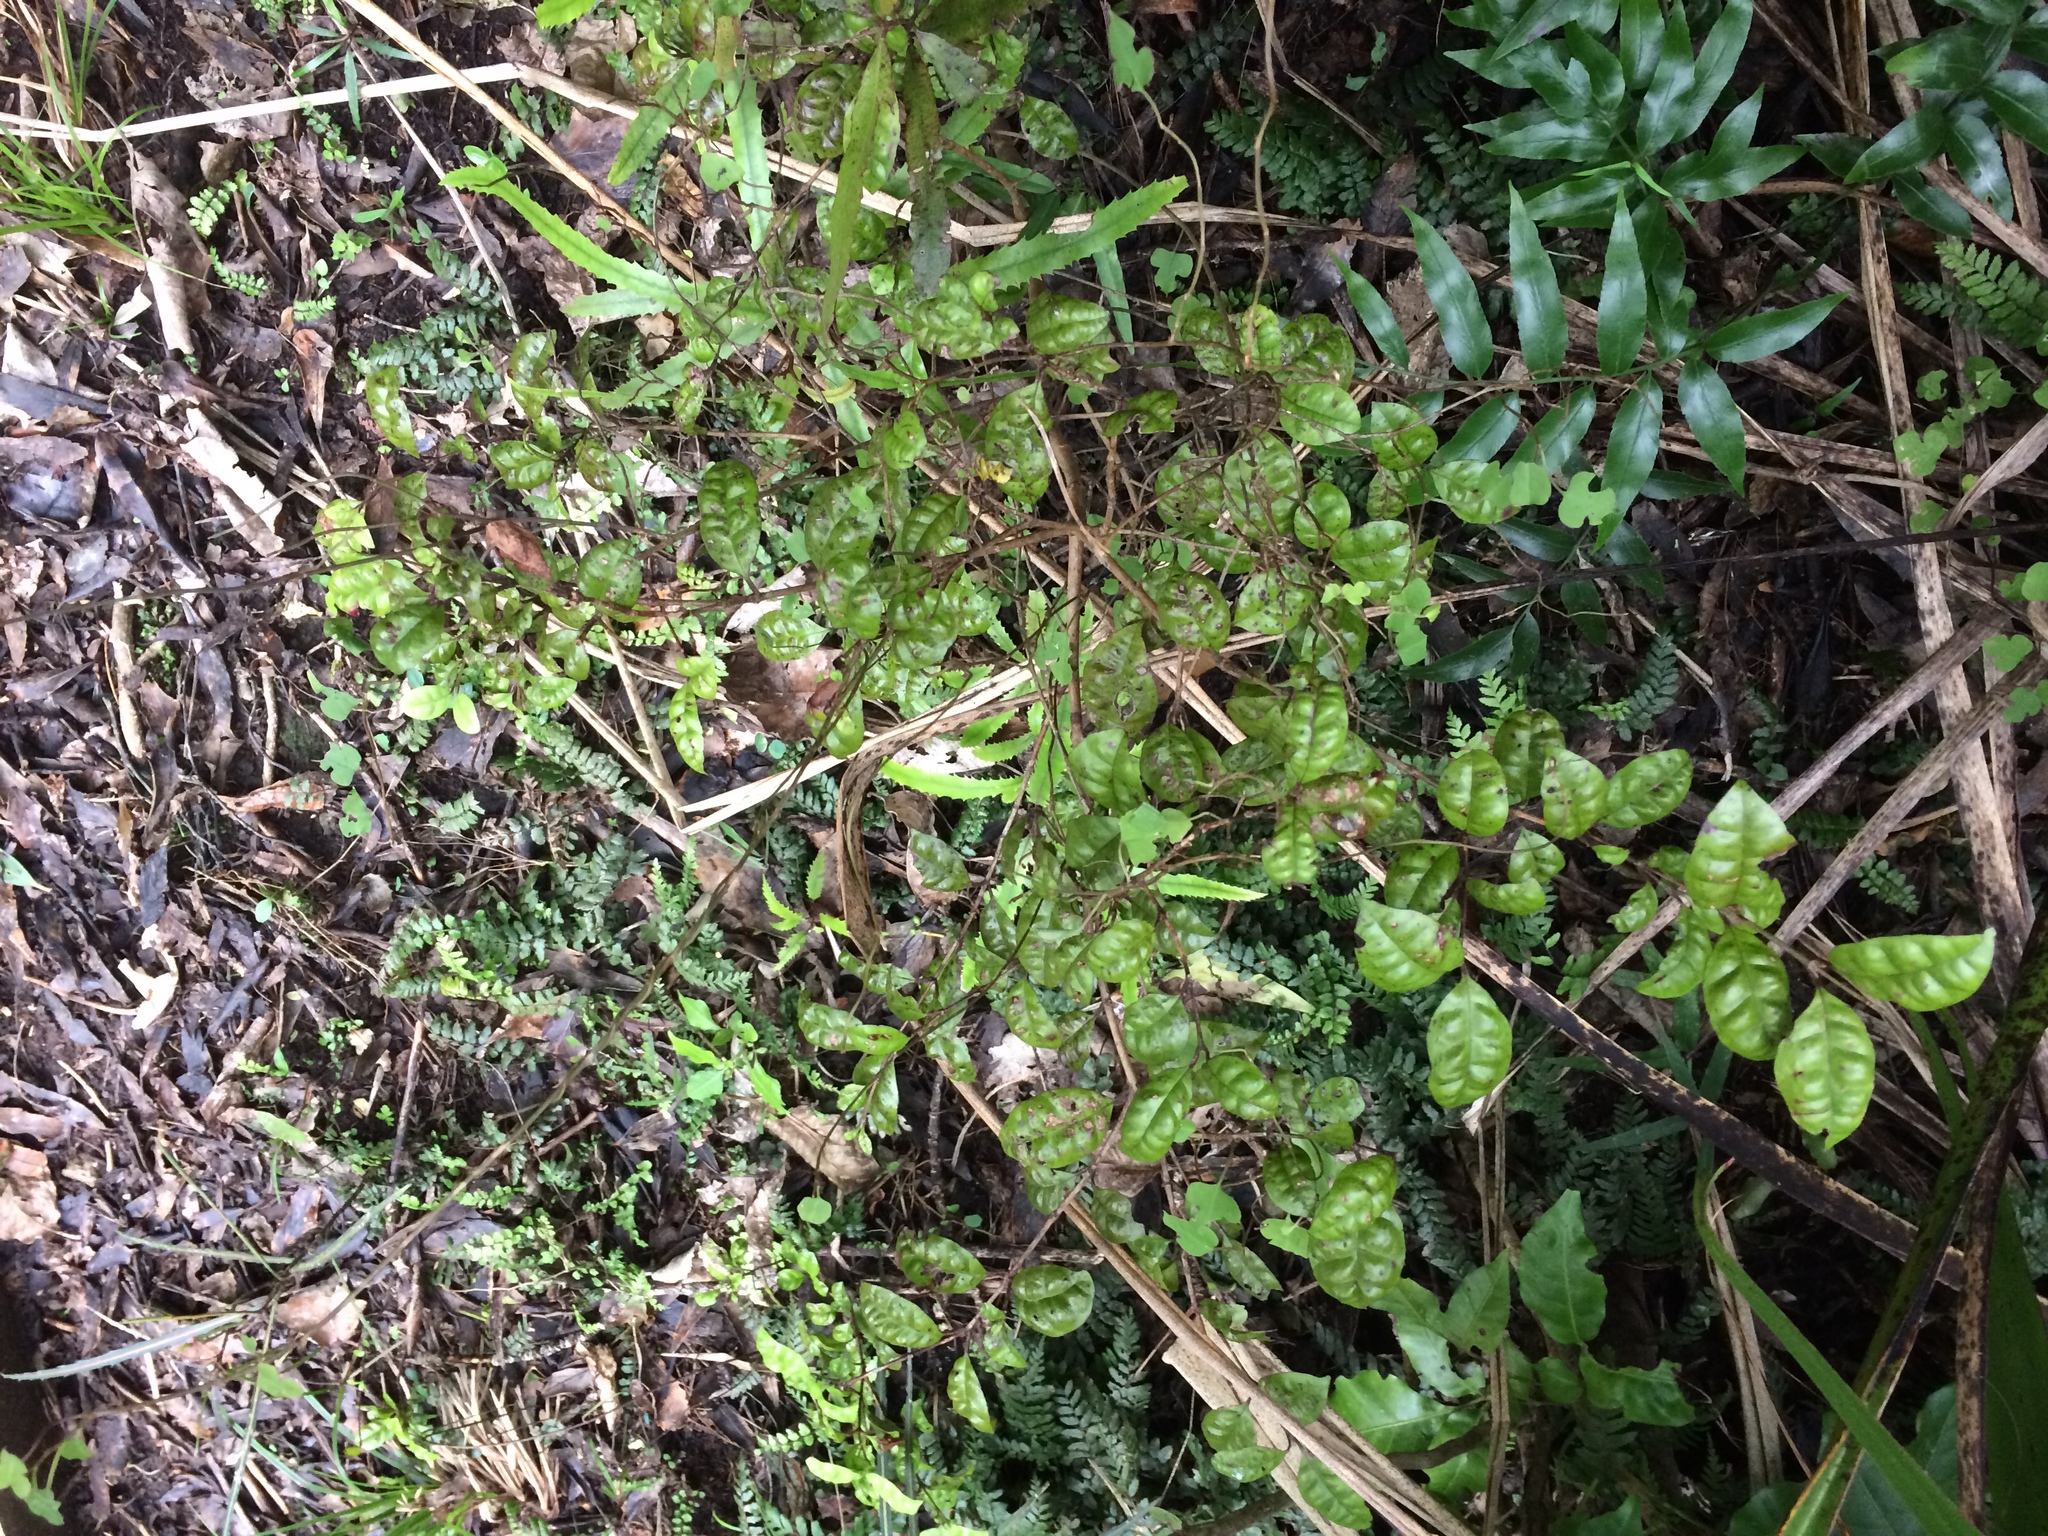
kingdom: Plantae
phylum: Tracheophyta
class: Magnoliopsida
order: Myrtales
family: Myrtaceae
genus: Lophomyrtus
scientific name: Lophomyrtus bullata
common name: Rama rama
